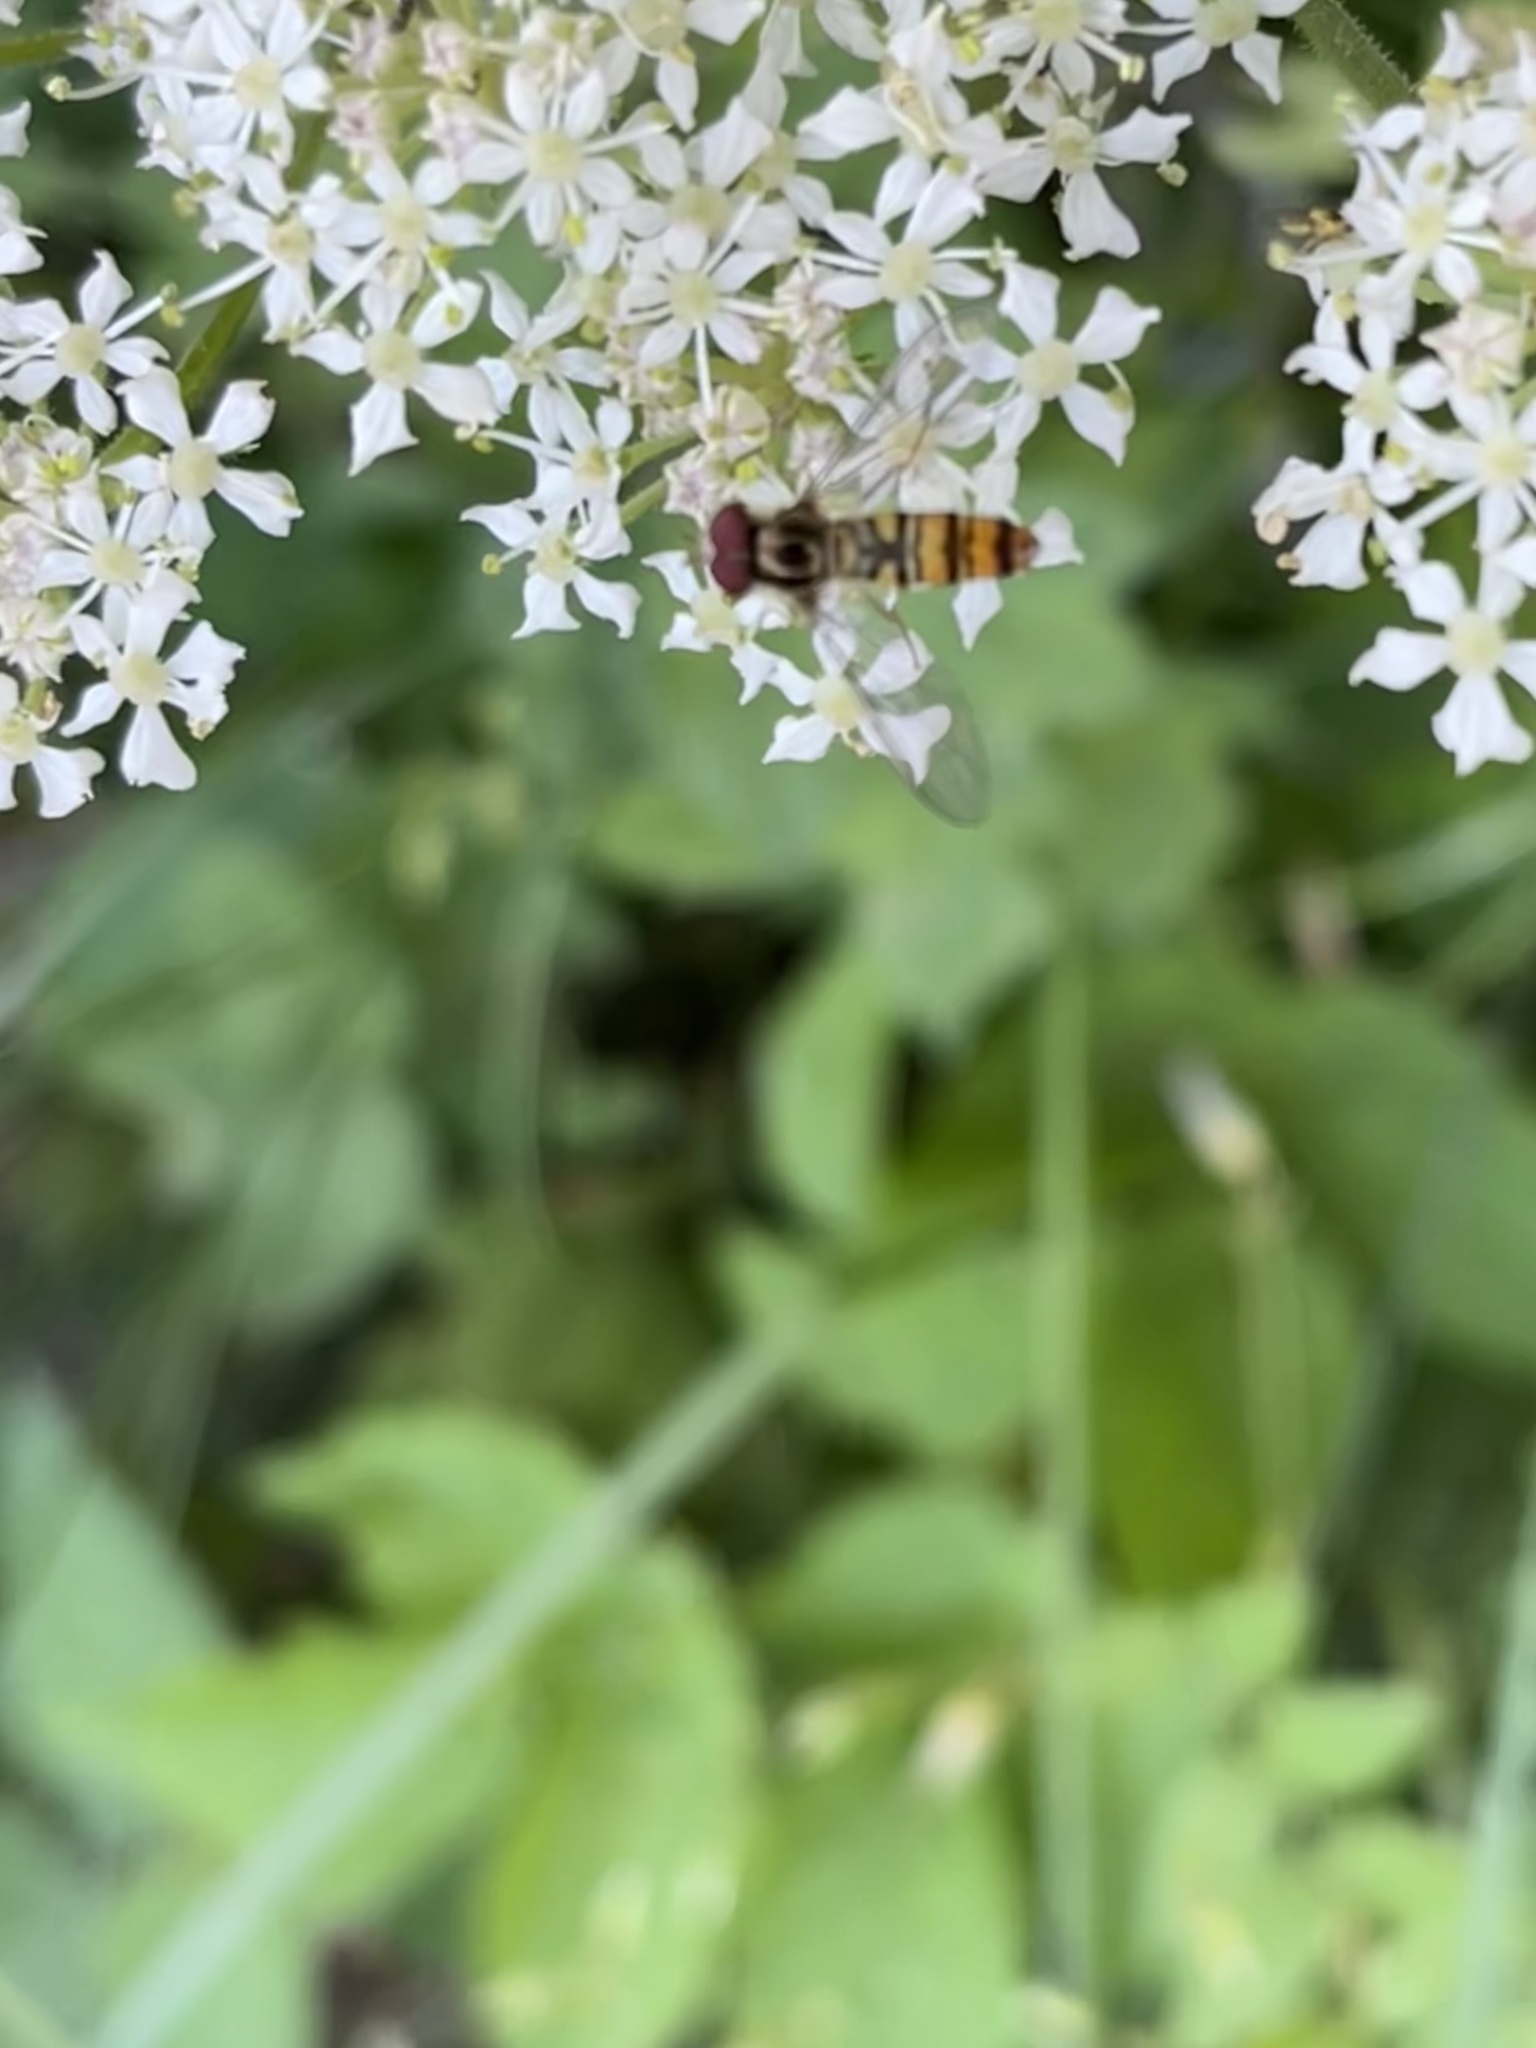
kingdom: Animalia
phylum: Arthropoda
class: Insecta
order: Diptera
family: Syrphidae
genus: Episyrphus
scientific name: Episyrphus balteatus
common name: Marmalade hoverfly
